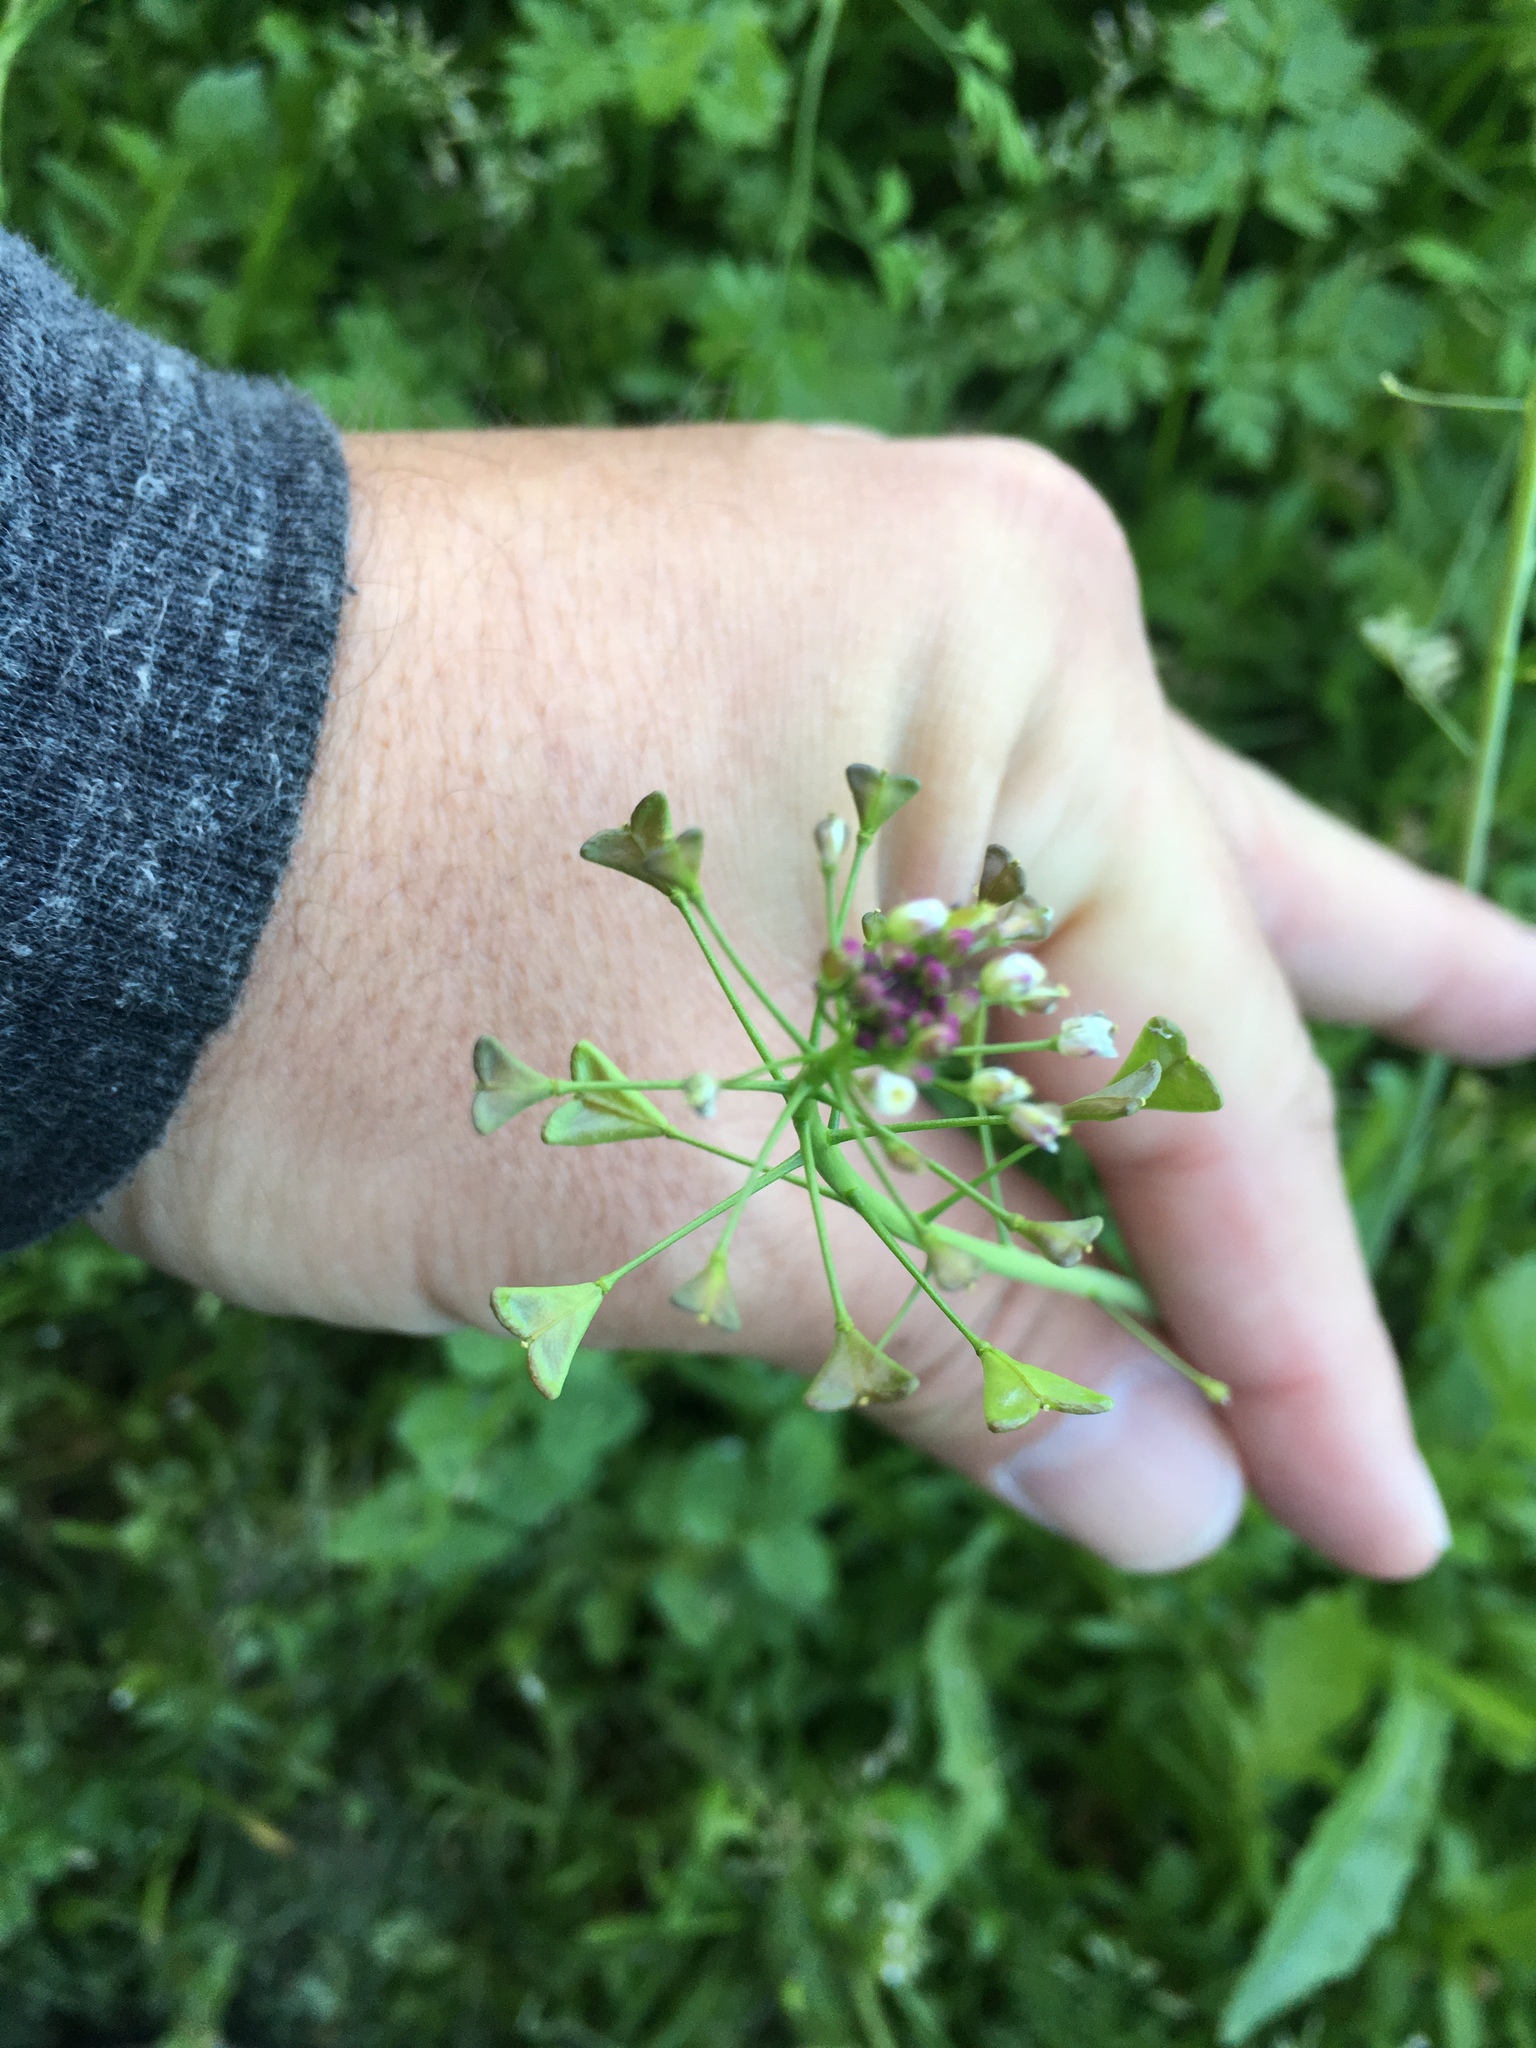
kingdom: Plantae
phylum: Tracheophyta
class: Magnoliopsida
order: Brassicales
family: Brassicaceae
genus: Capsella
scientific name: Capsella bursa-pastoris
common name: Shepherd's purse
